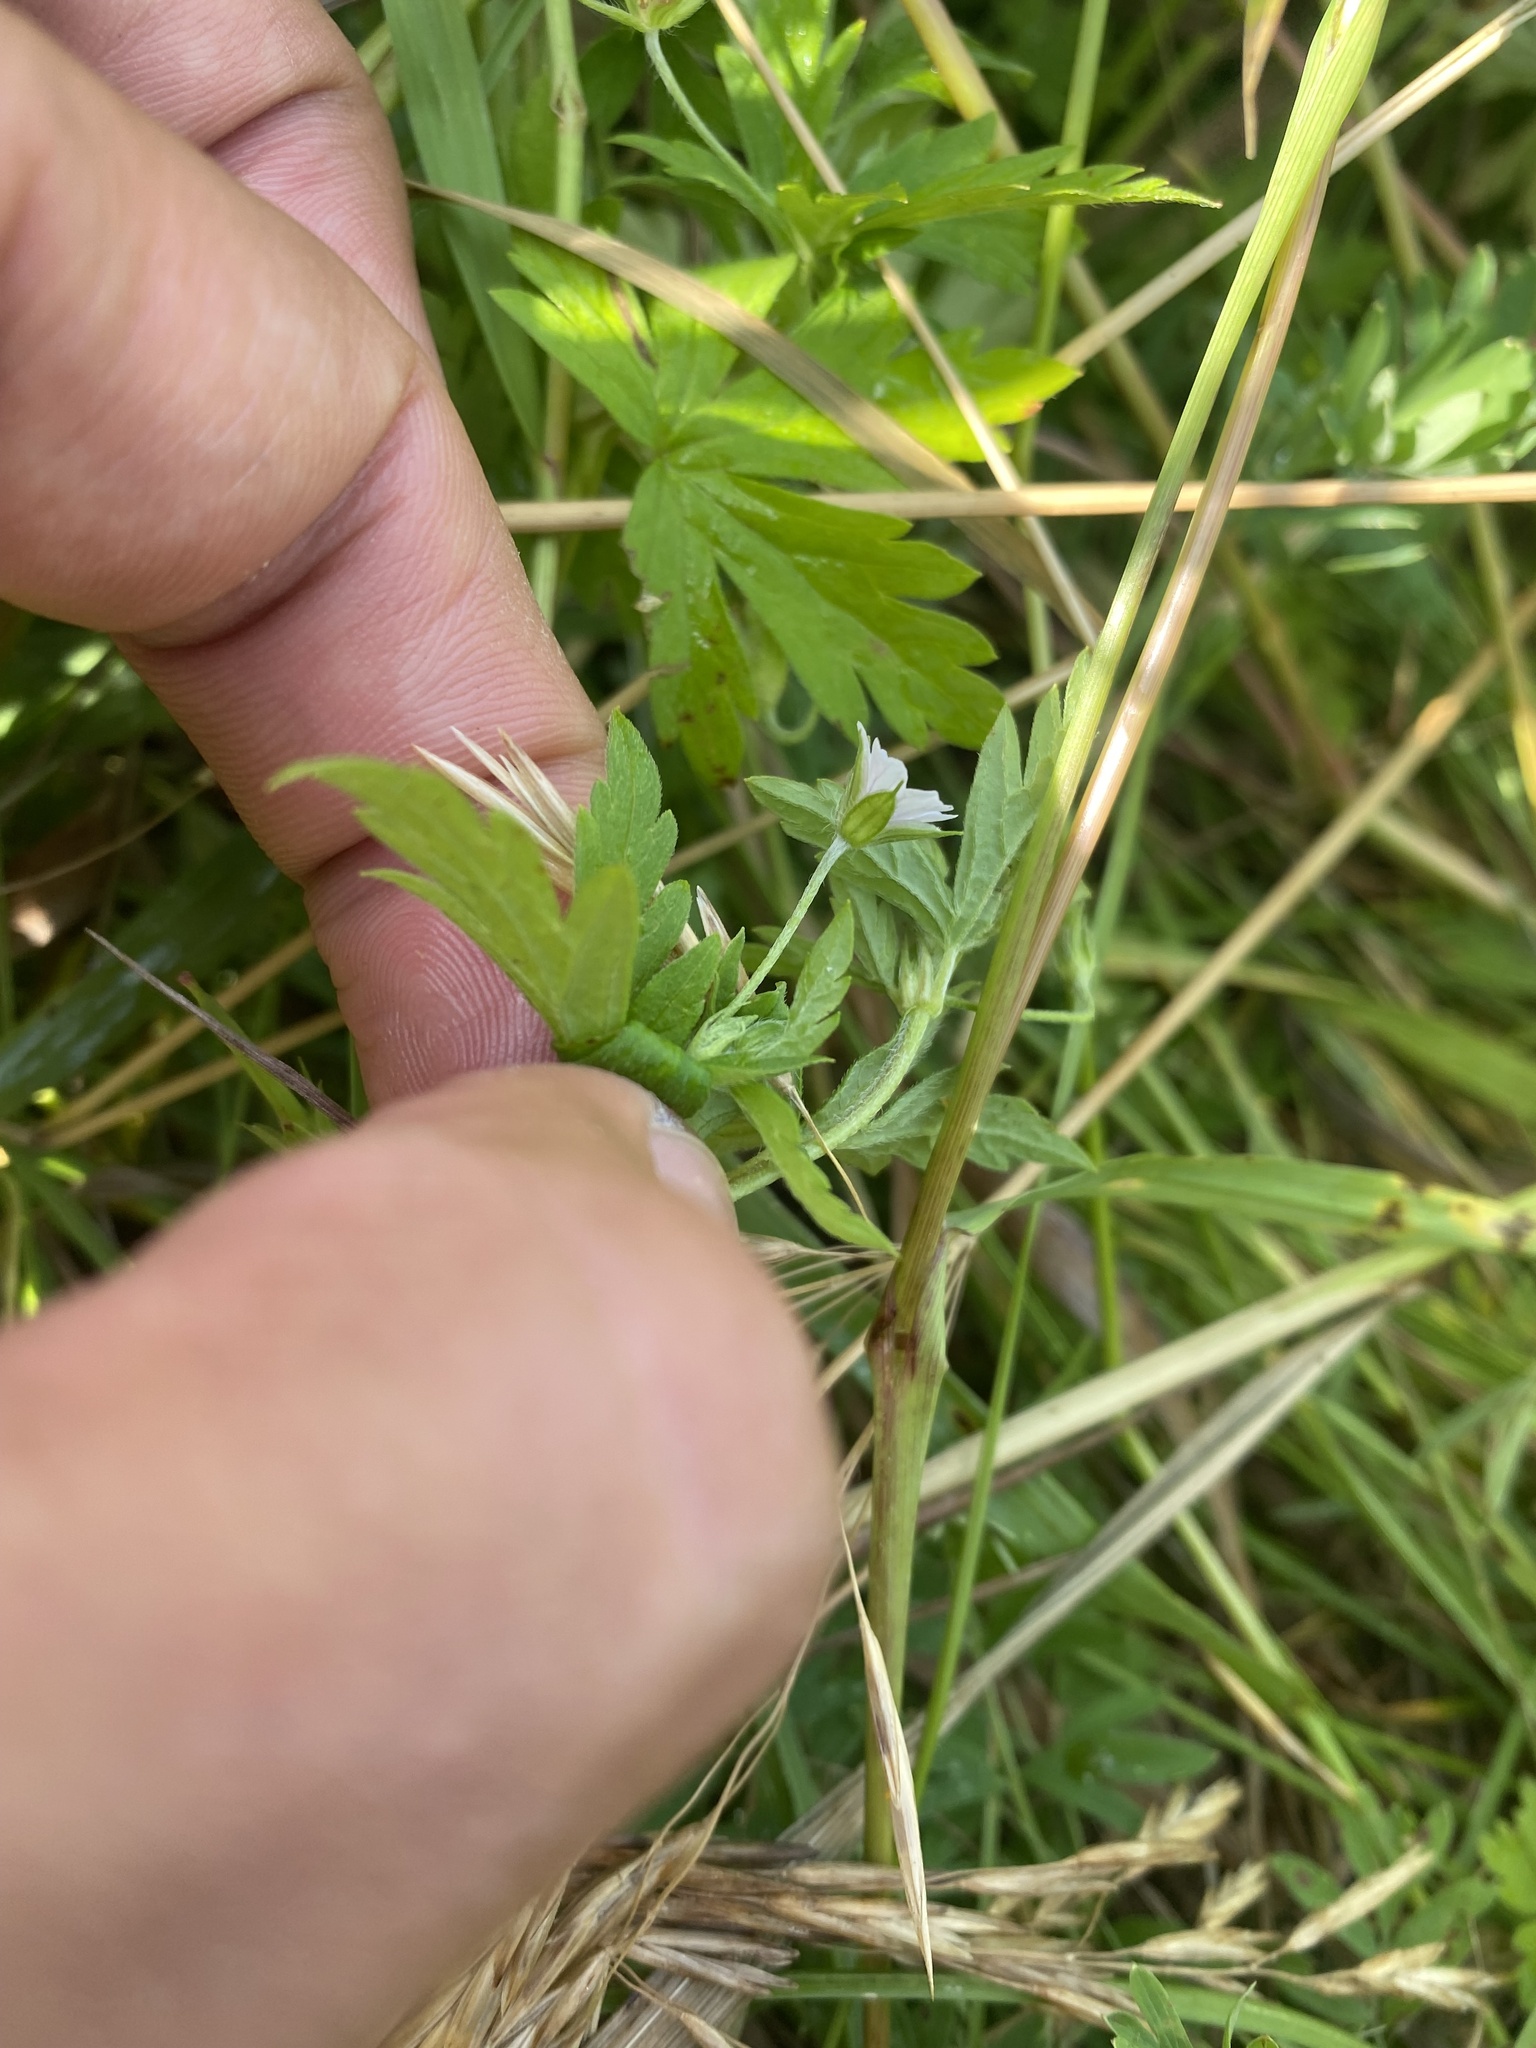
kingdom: Plantae
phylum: Tracheophyta
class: Magnoliopsida
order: Geraniales
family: Geraniaceae
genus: Geranium
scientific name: Geranium sibiricum
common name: Siberian crane's-bill
